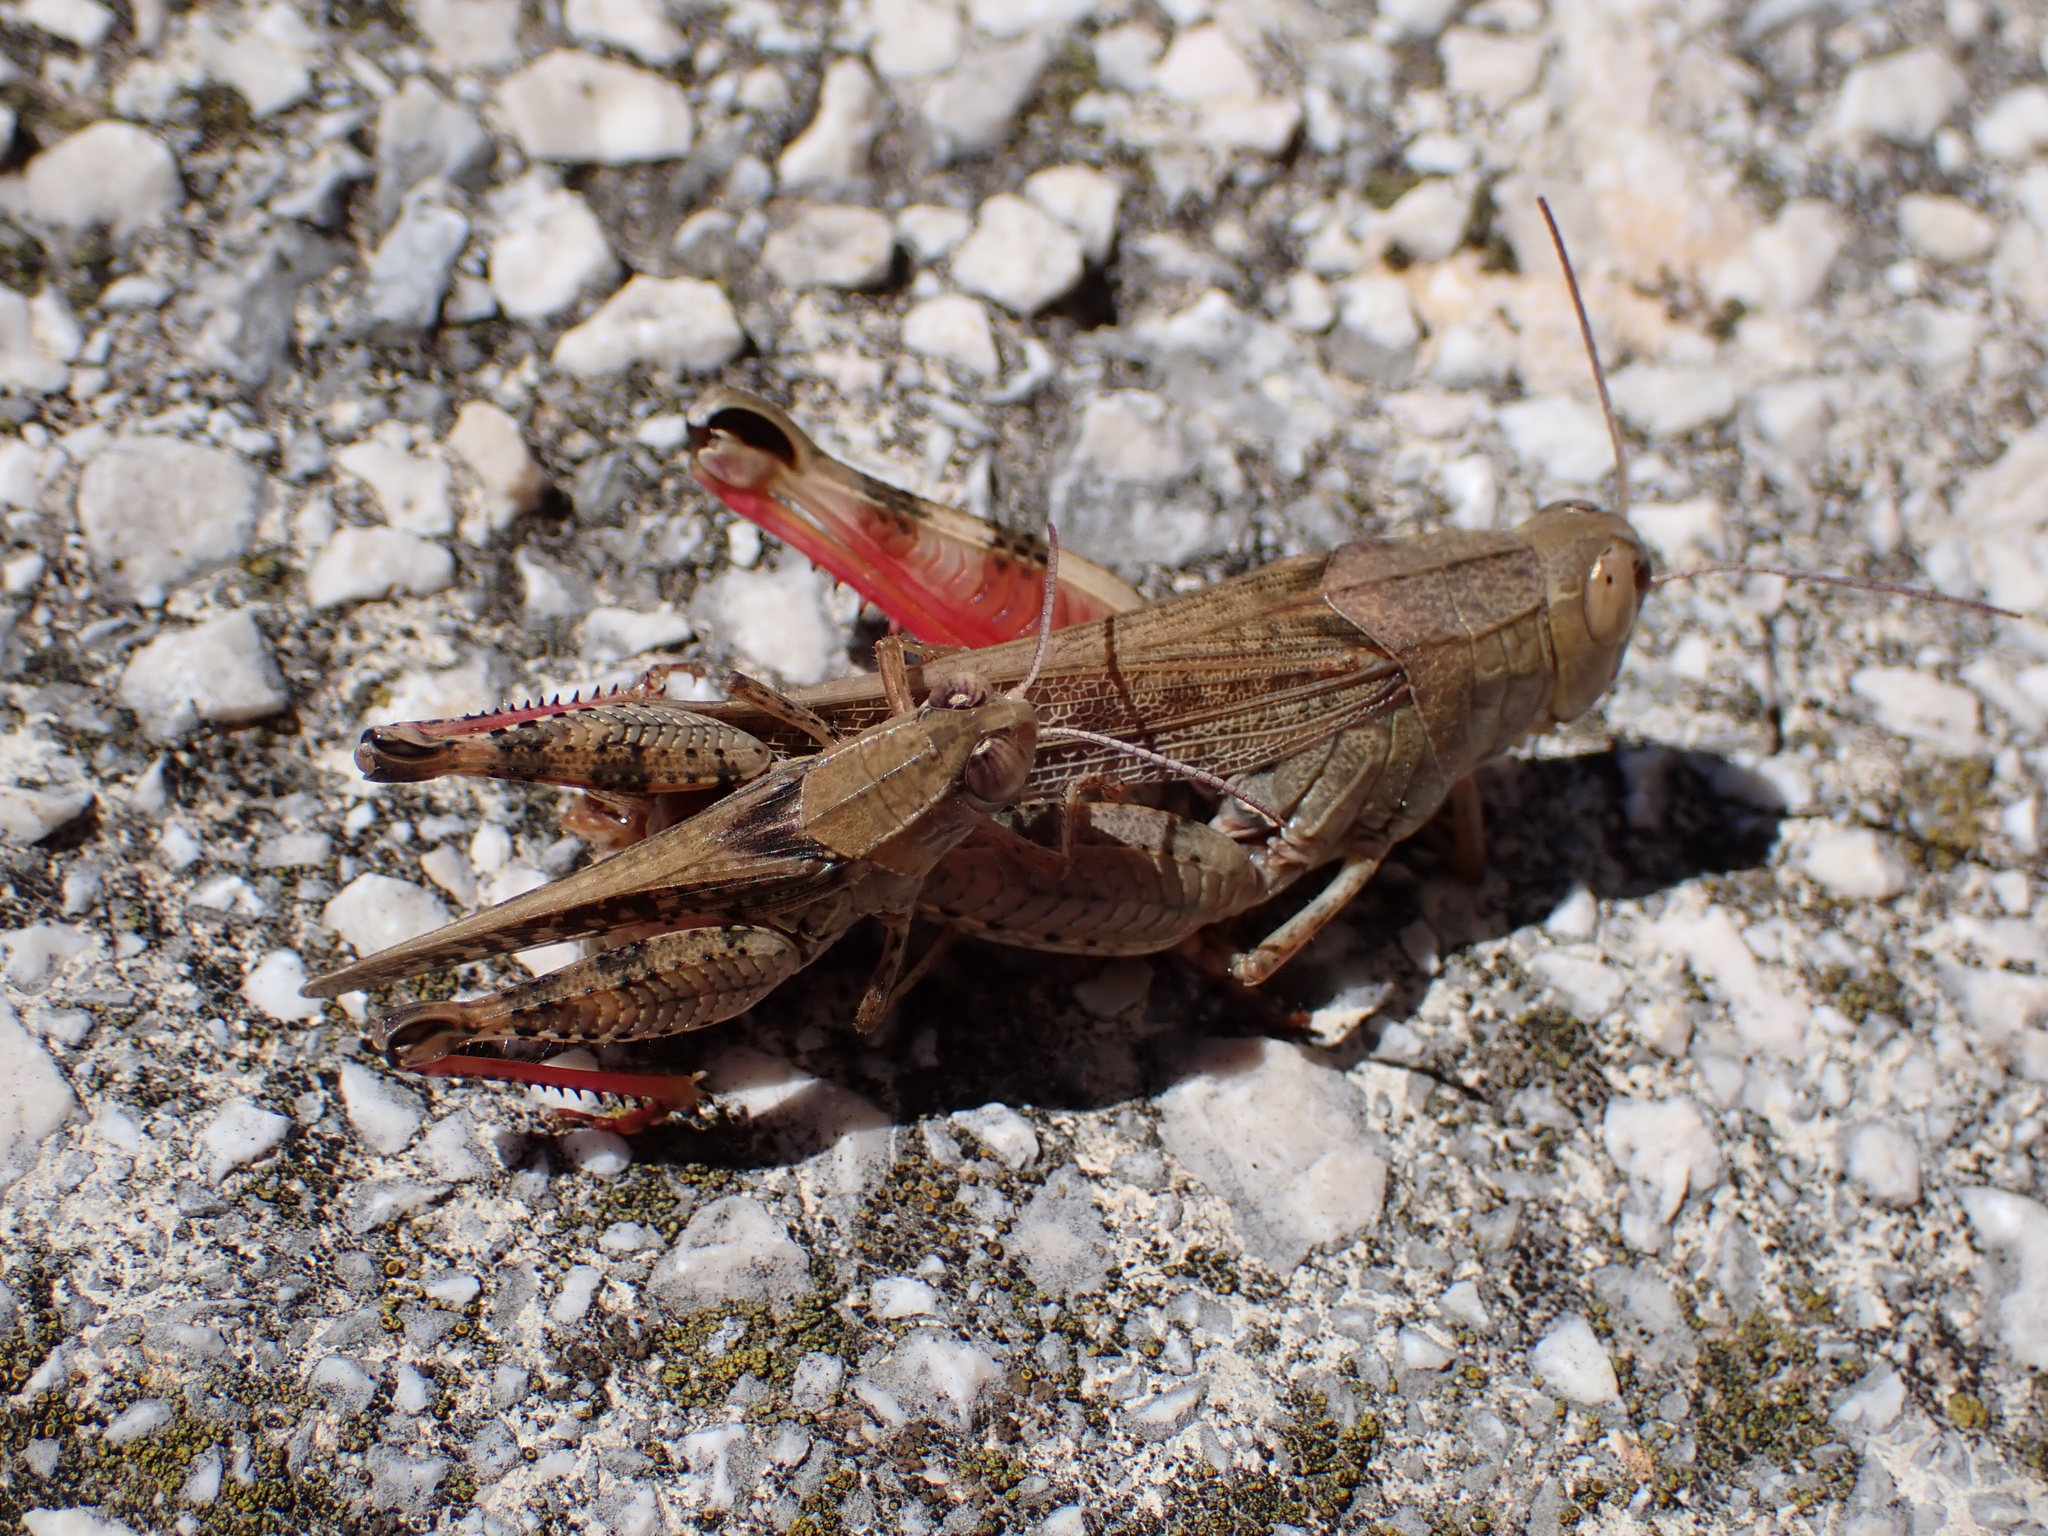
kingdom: Animalia
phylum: Arthropoda
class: Insecta
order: Orthoptera
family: Acrididae
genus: Calliptamus
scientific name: Calliptamus italicus
